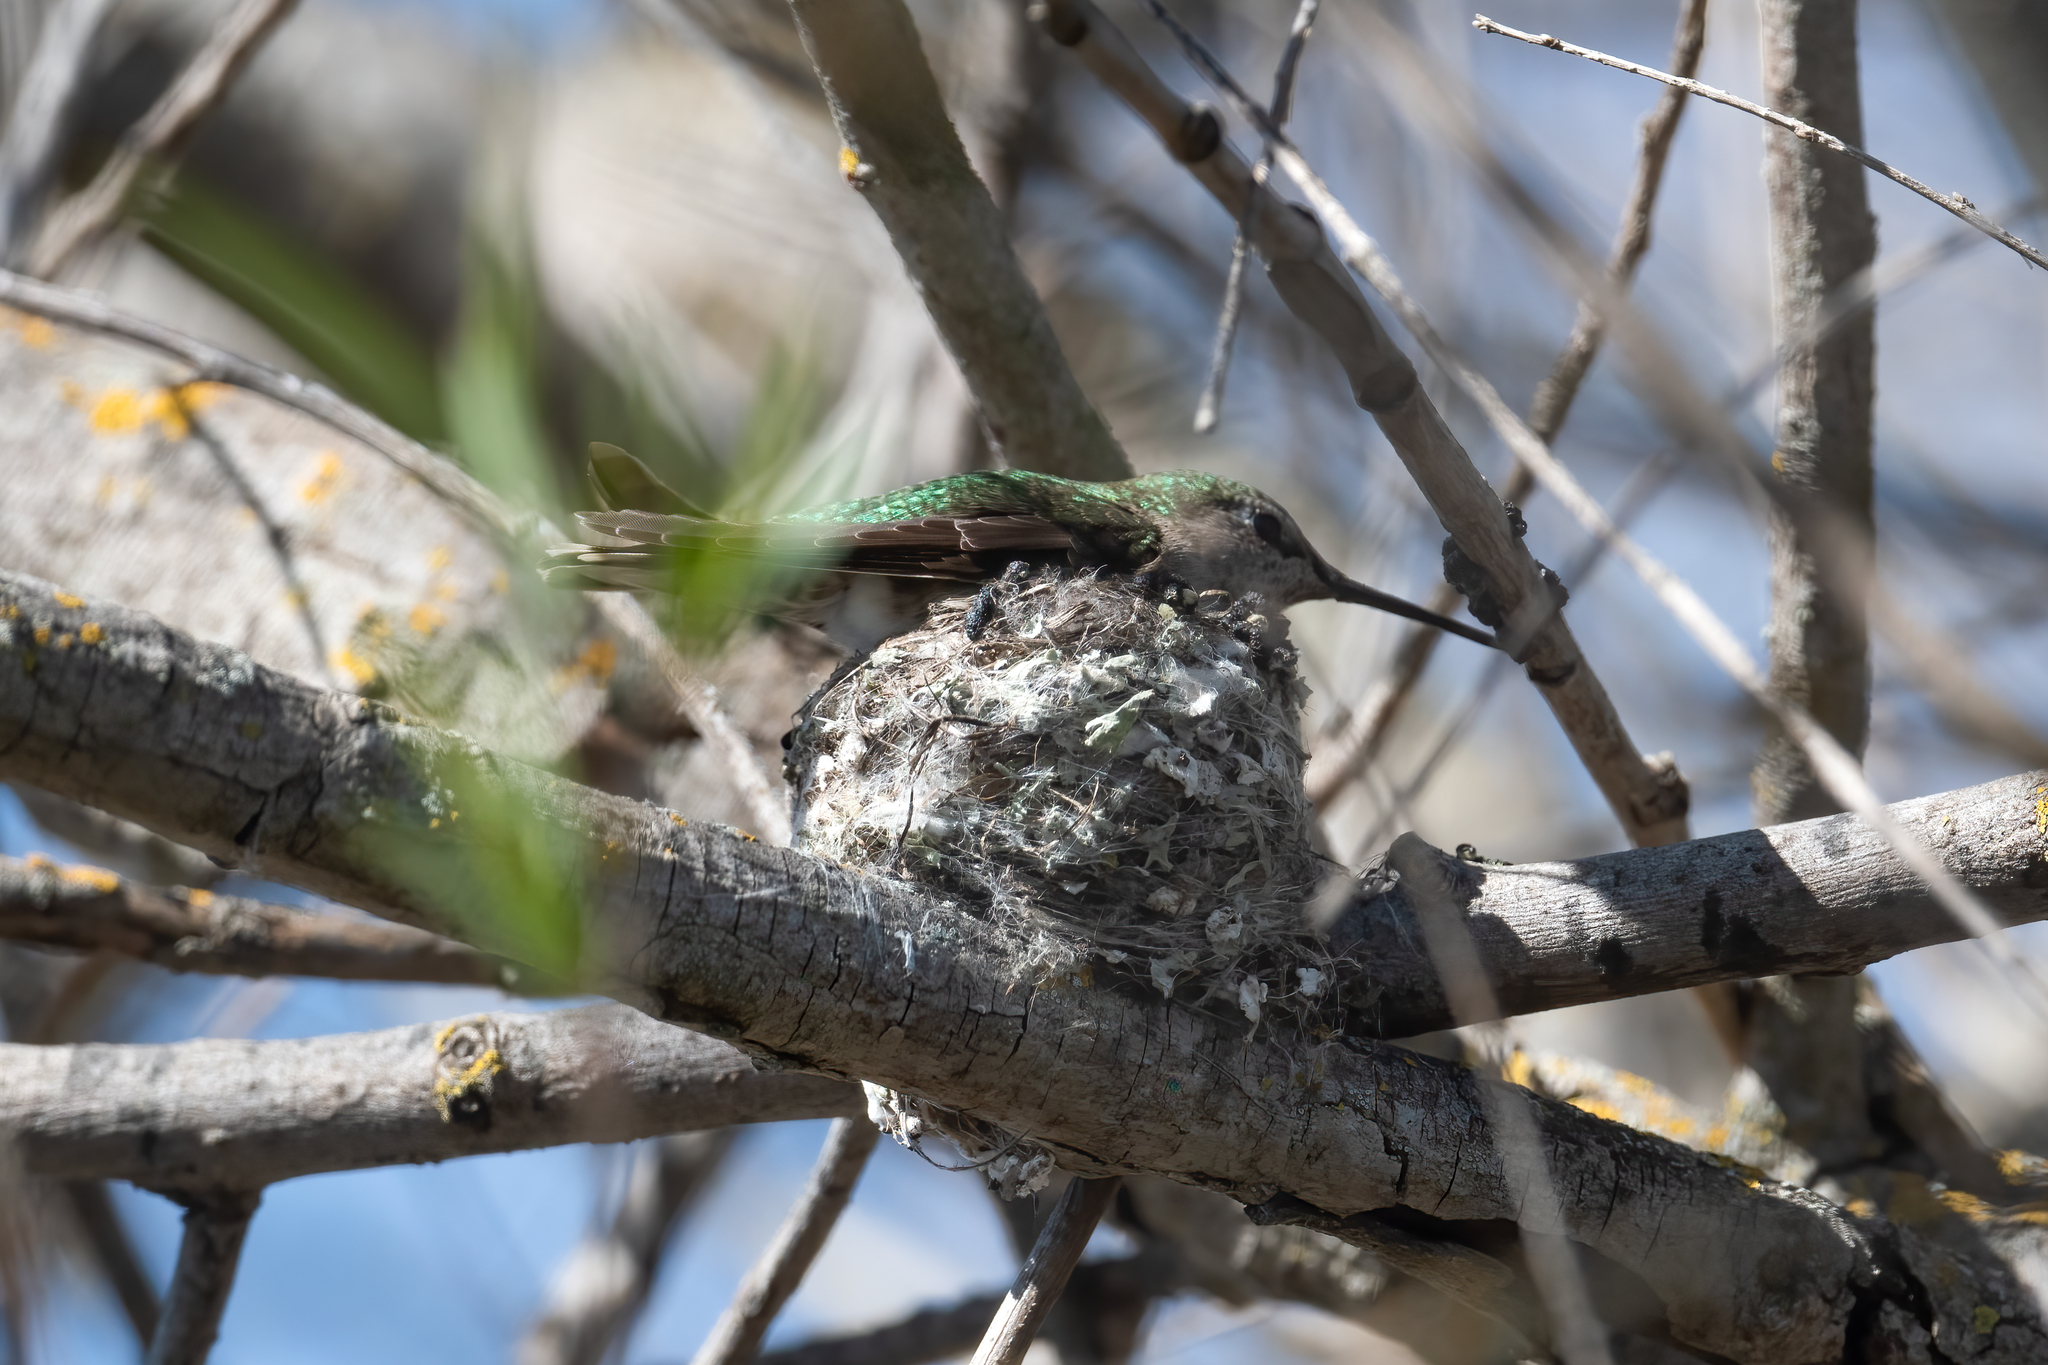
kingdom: Animalia
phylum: Chordata
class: Aves
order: Apodiformes
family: Trochilidae
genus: Calypte
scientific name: Calypte anna
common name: Anna's hummingbird
